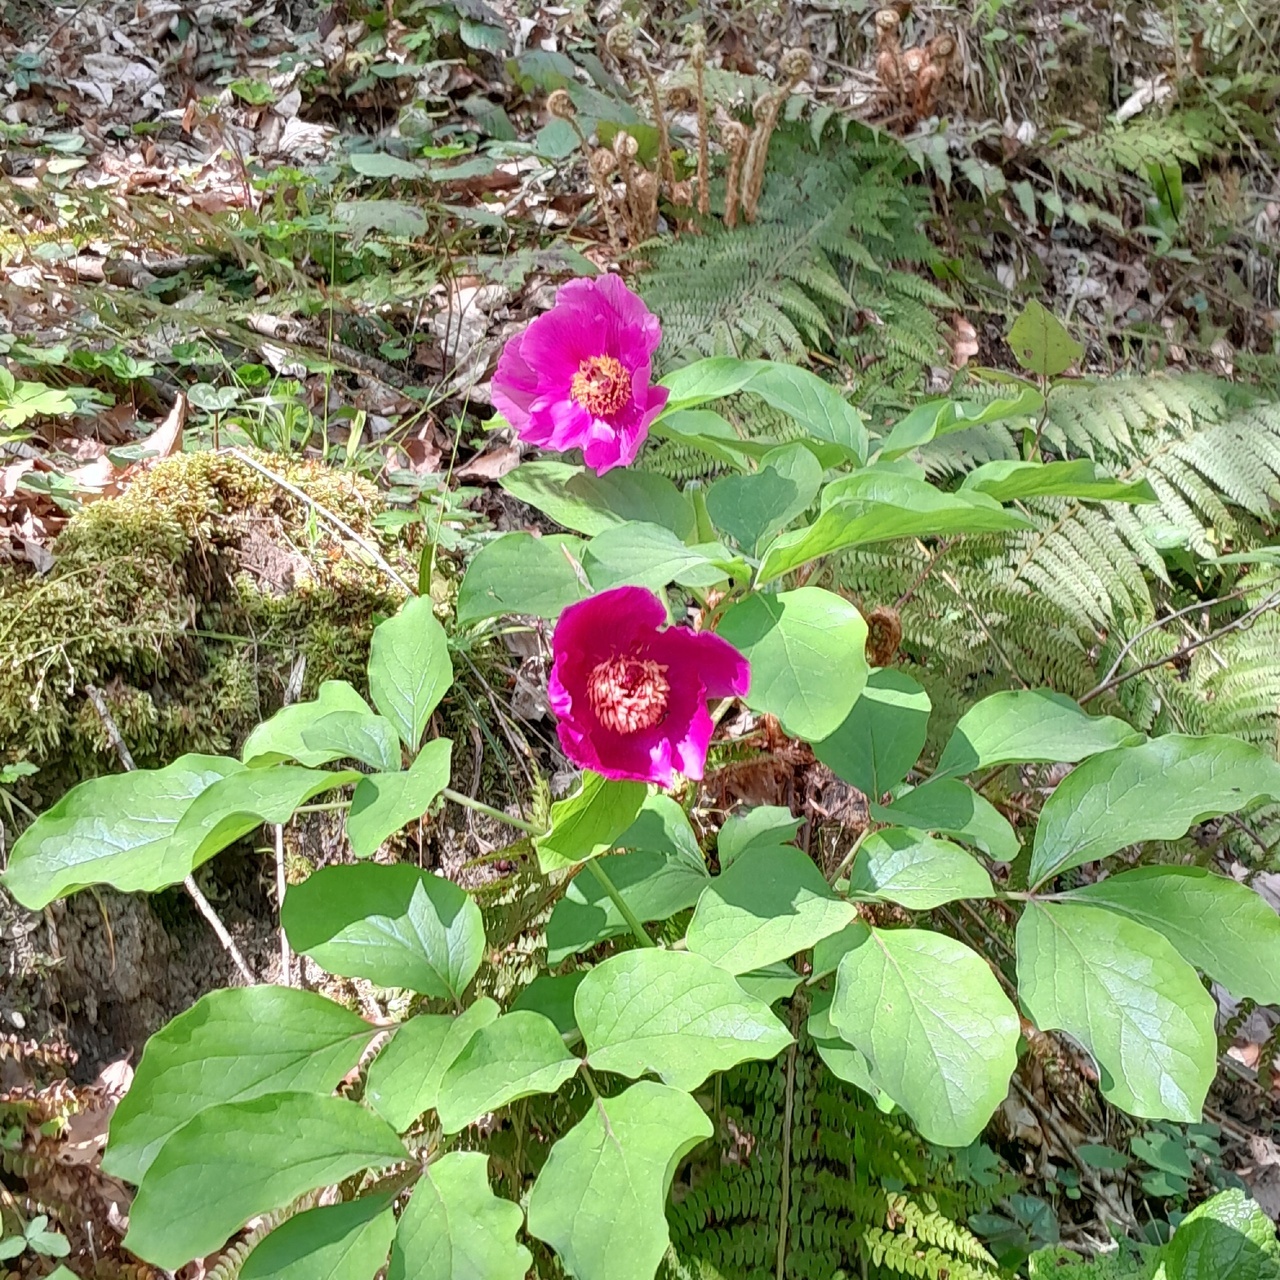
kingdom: Plantae
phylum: Tracheophyta
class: Magnoliopsida
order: Saxifragales
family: Paeoniaceae
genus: Paeonia
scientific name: Paeonia caucasica
